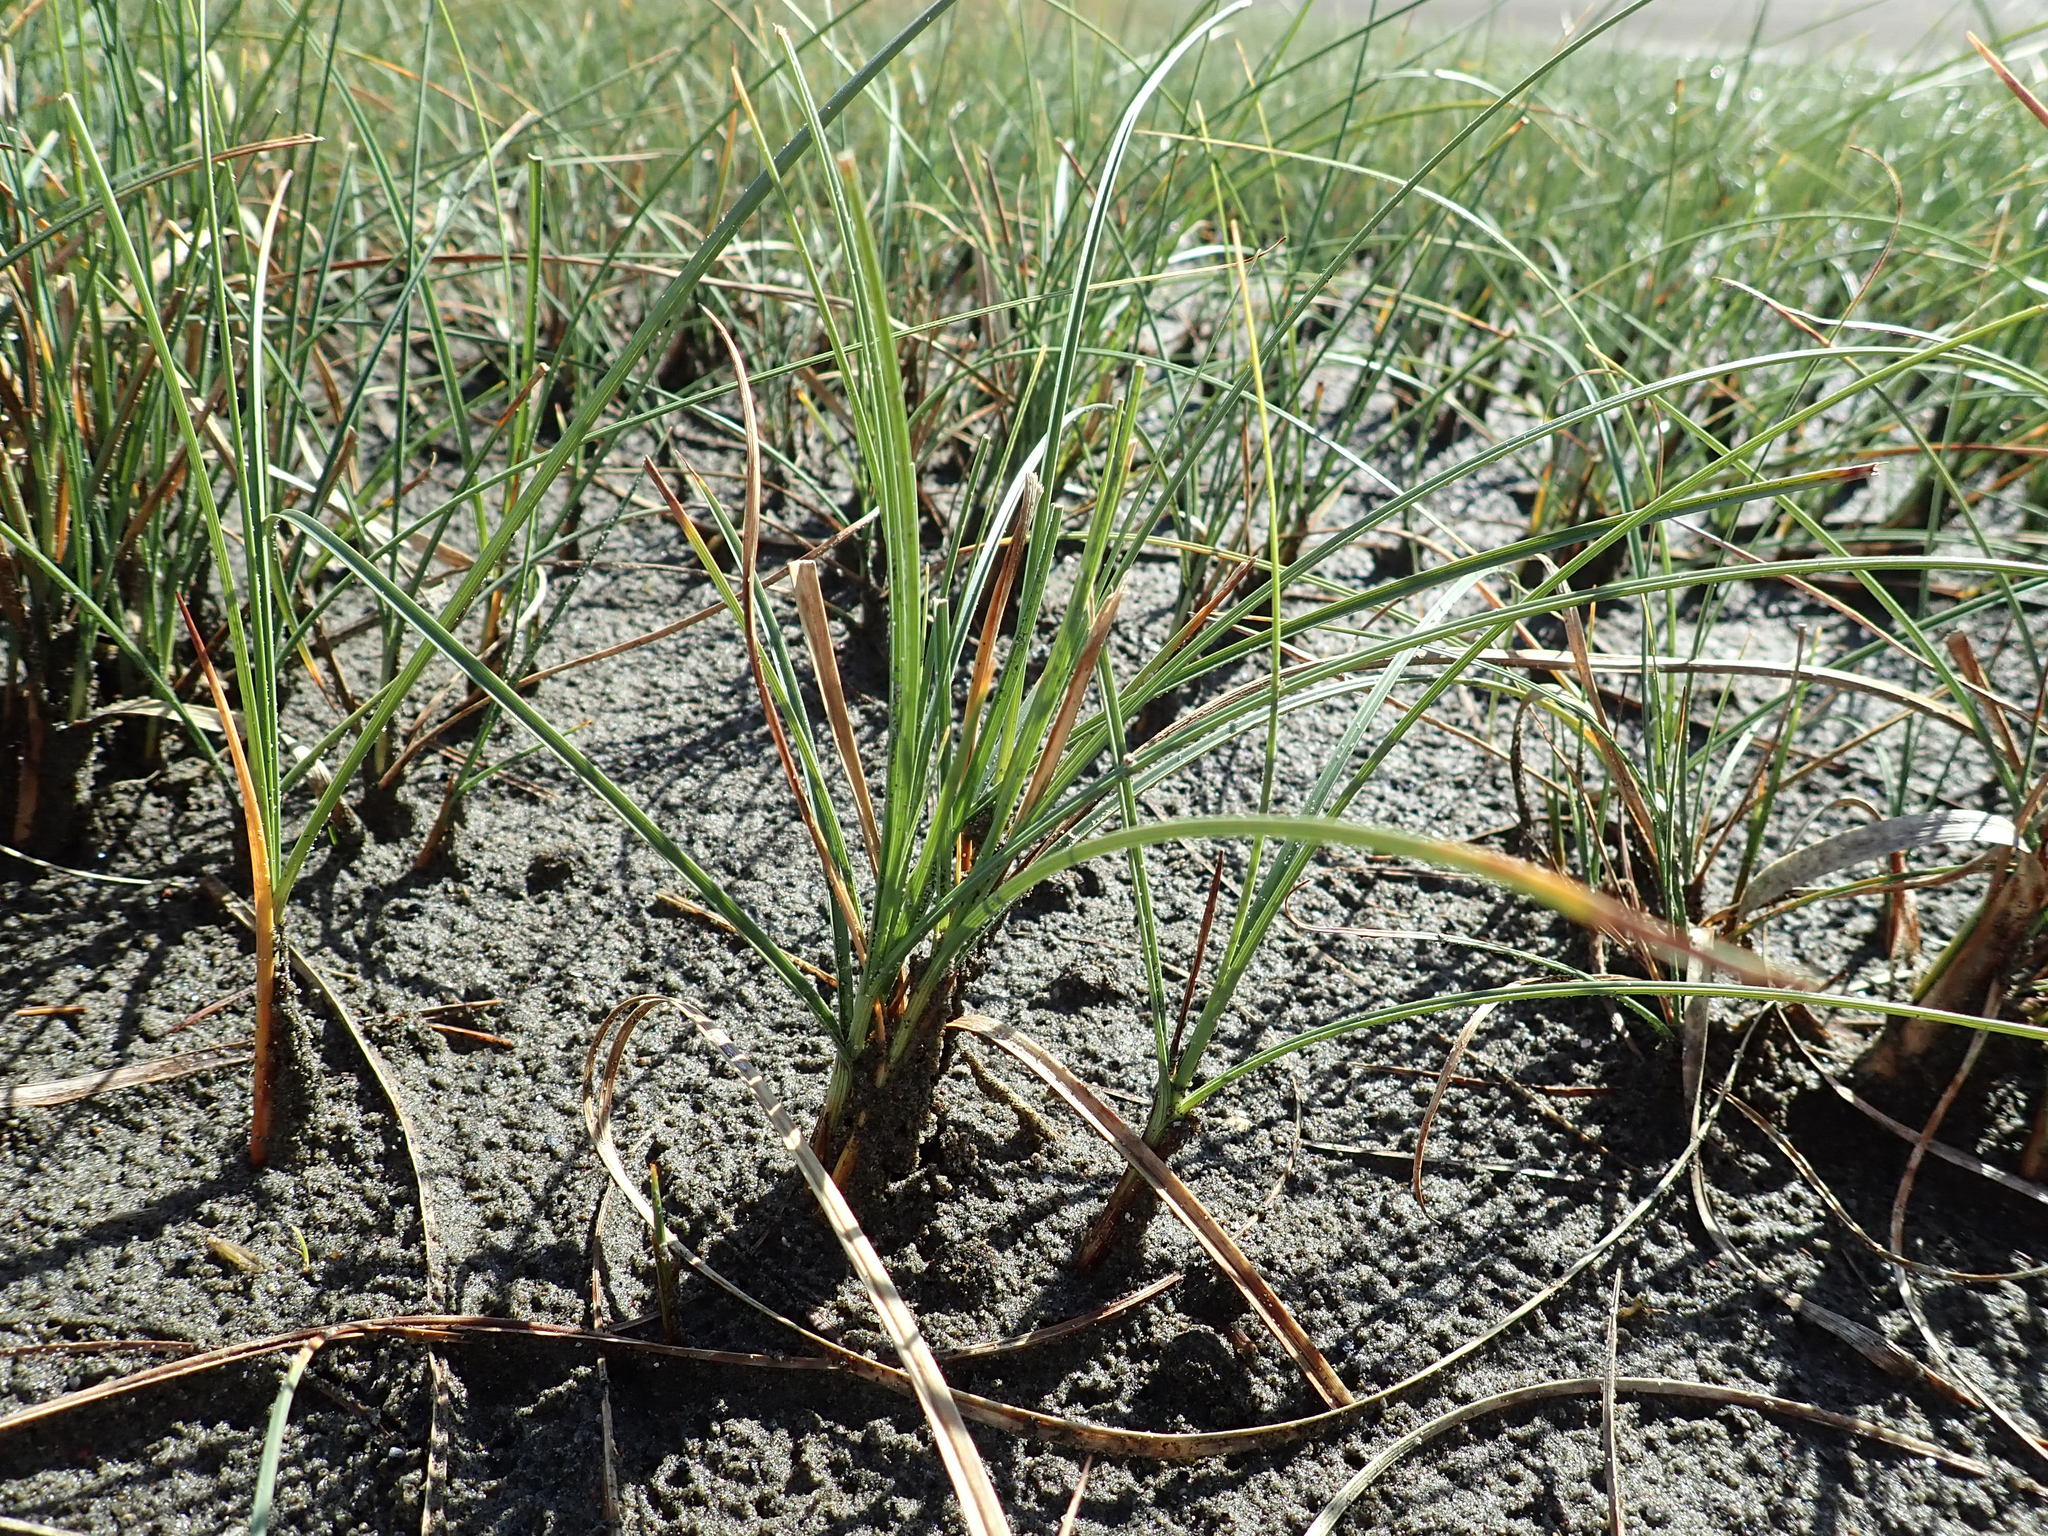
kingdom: Plantae
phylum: Tracheophyta
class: Liliopsida
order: Poales
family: Cyperaceae
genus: Carex
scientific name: Carex pumila
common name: Dwarf sedge
